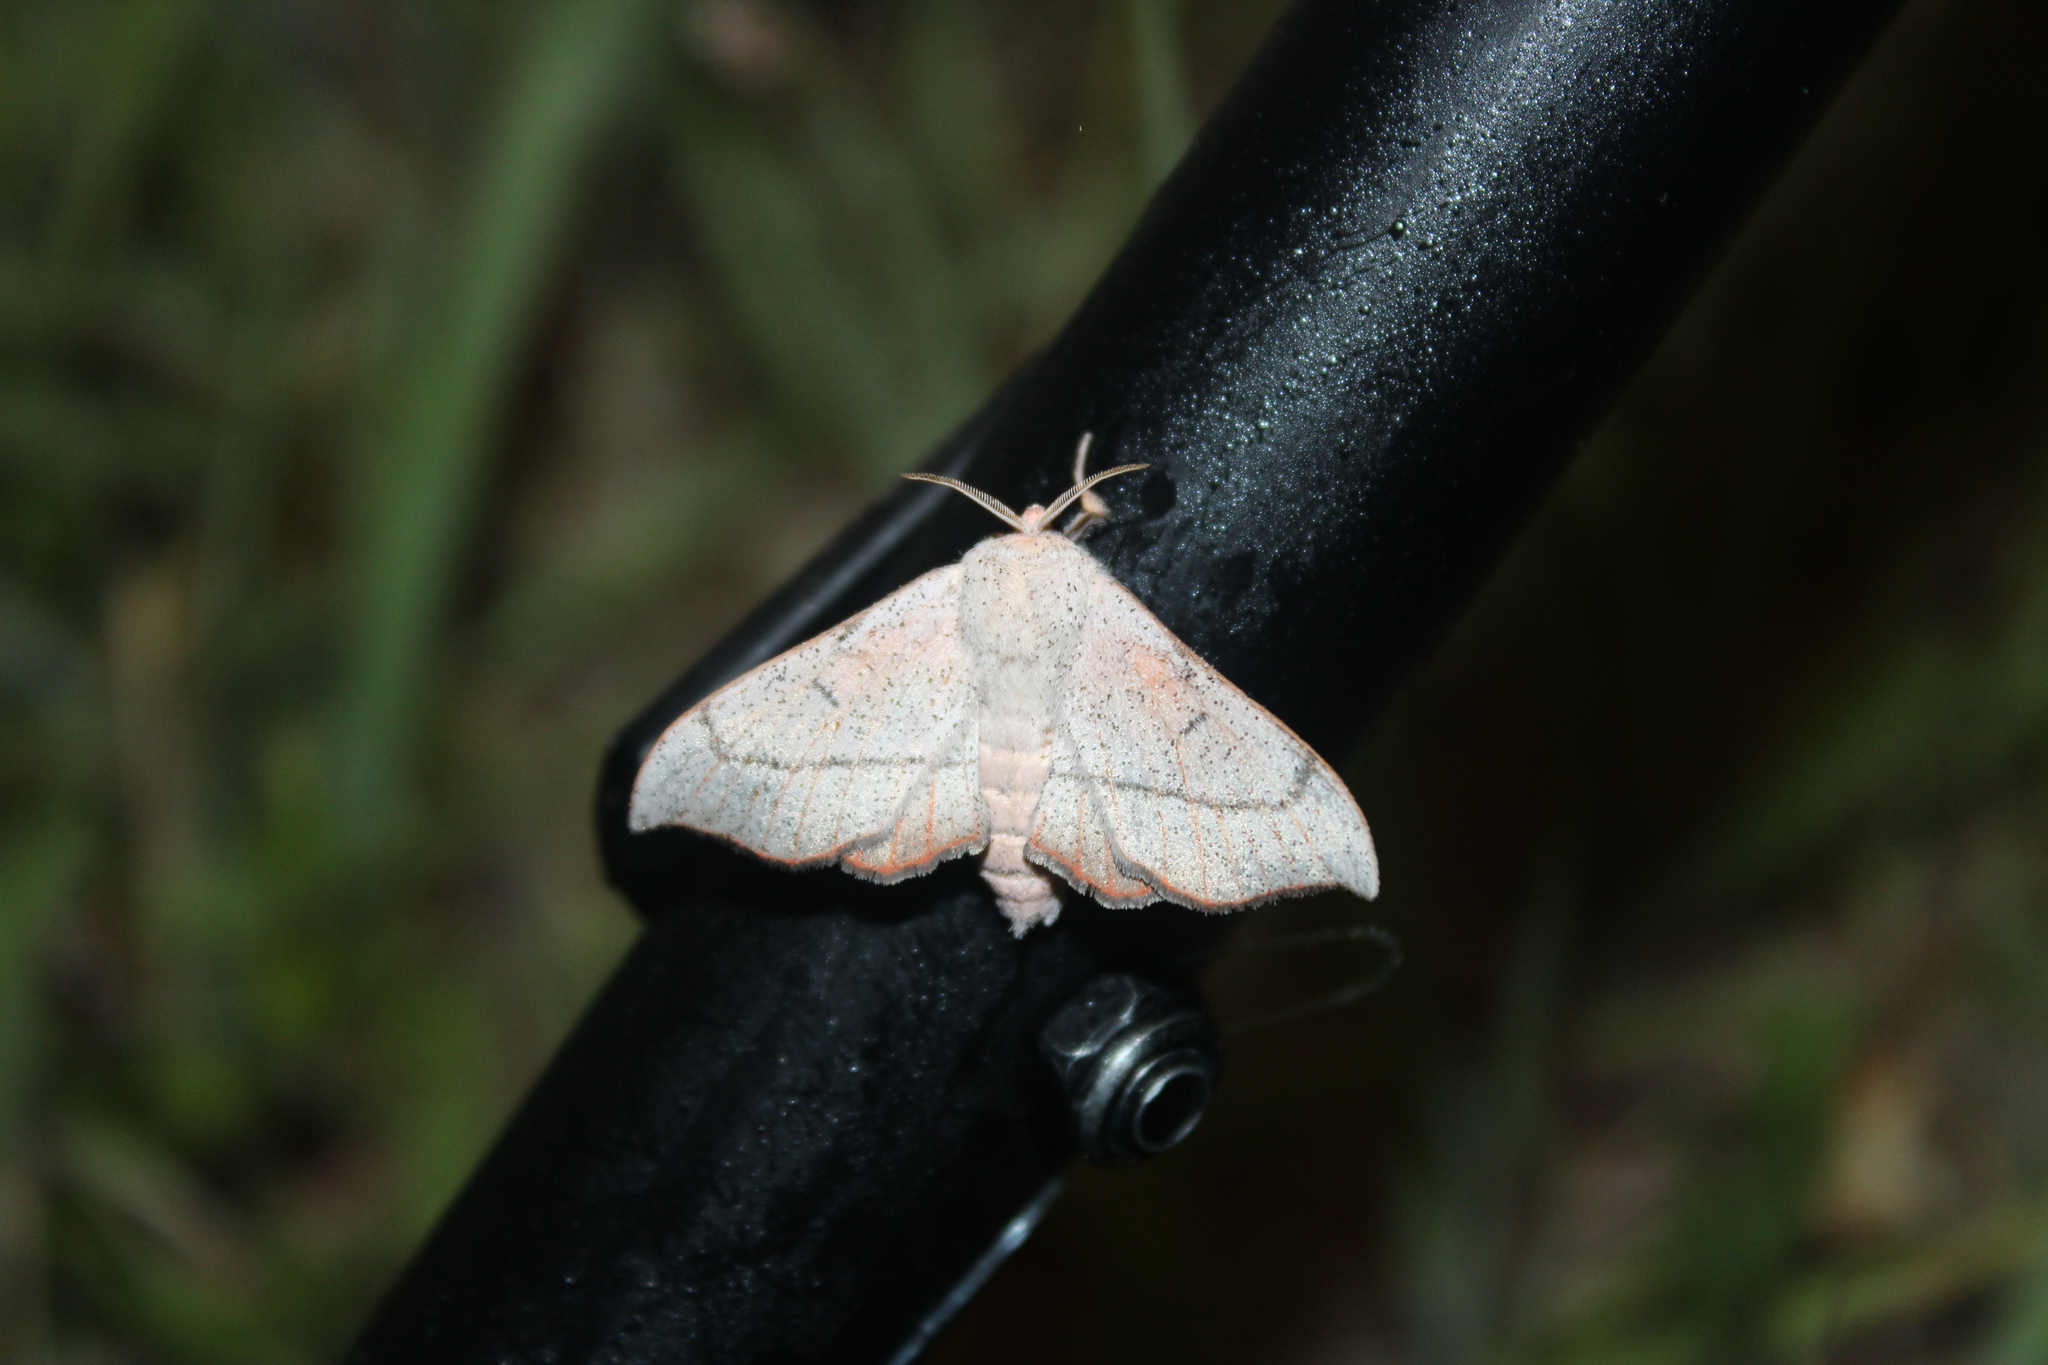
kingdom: Animalia
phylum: Arthropoda
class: Insecta
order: Lepidoptera
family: Mimallonidae
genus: Cicinnus
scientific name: Cicinnus melsheimeri
